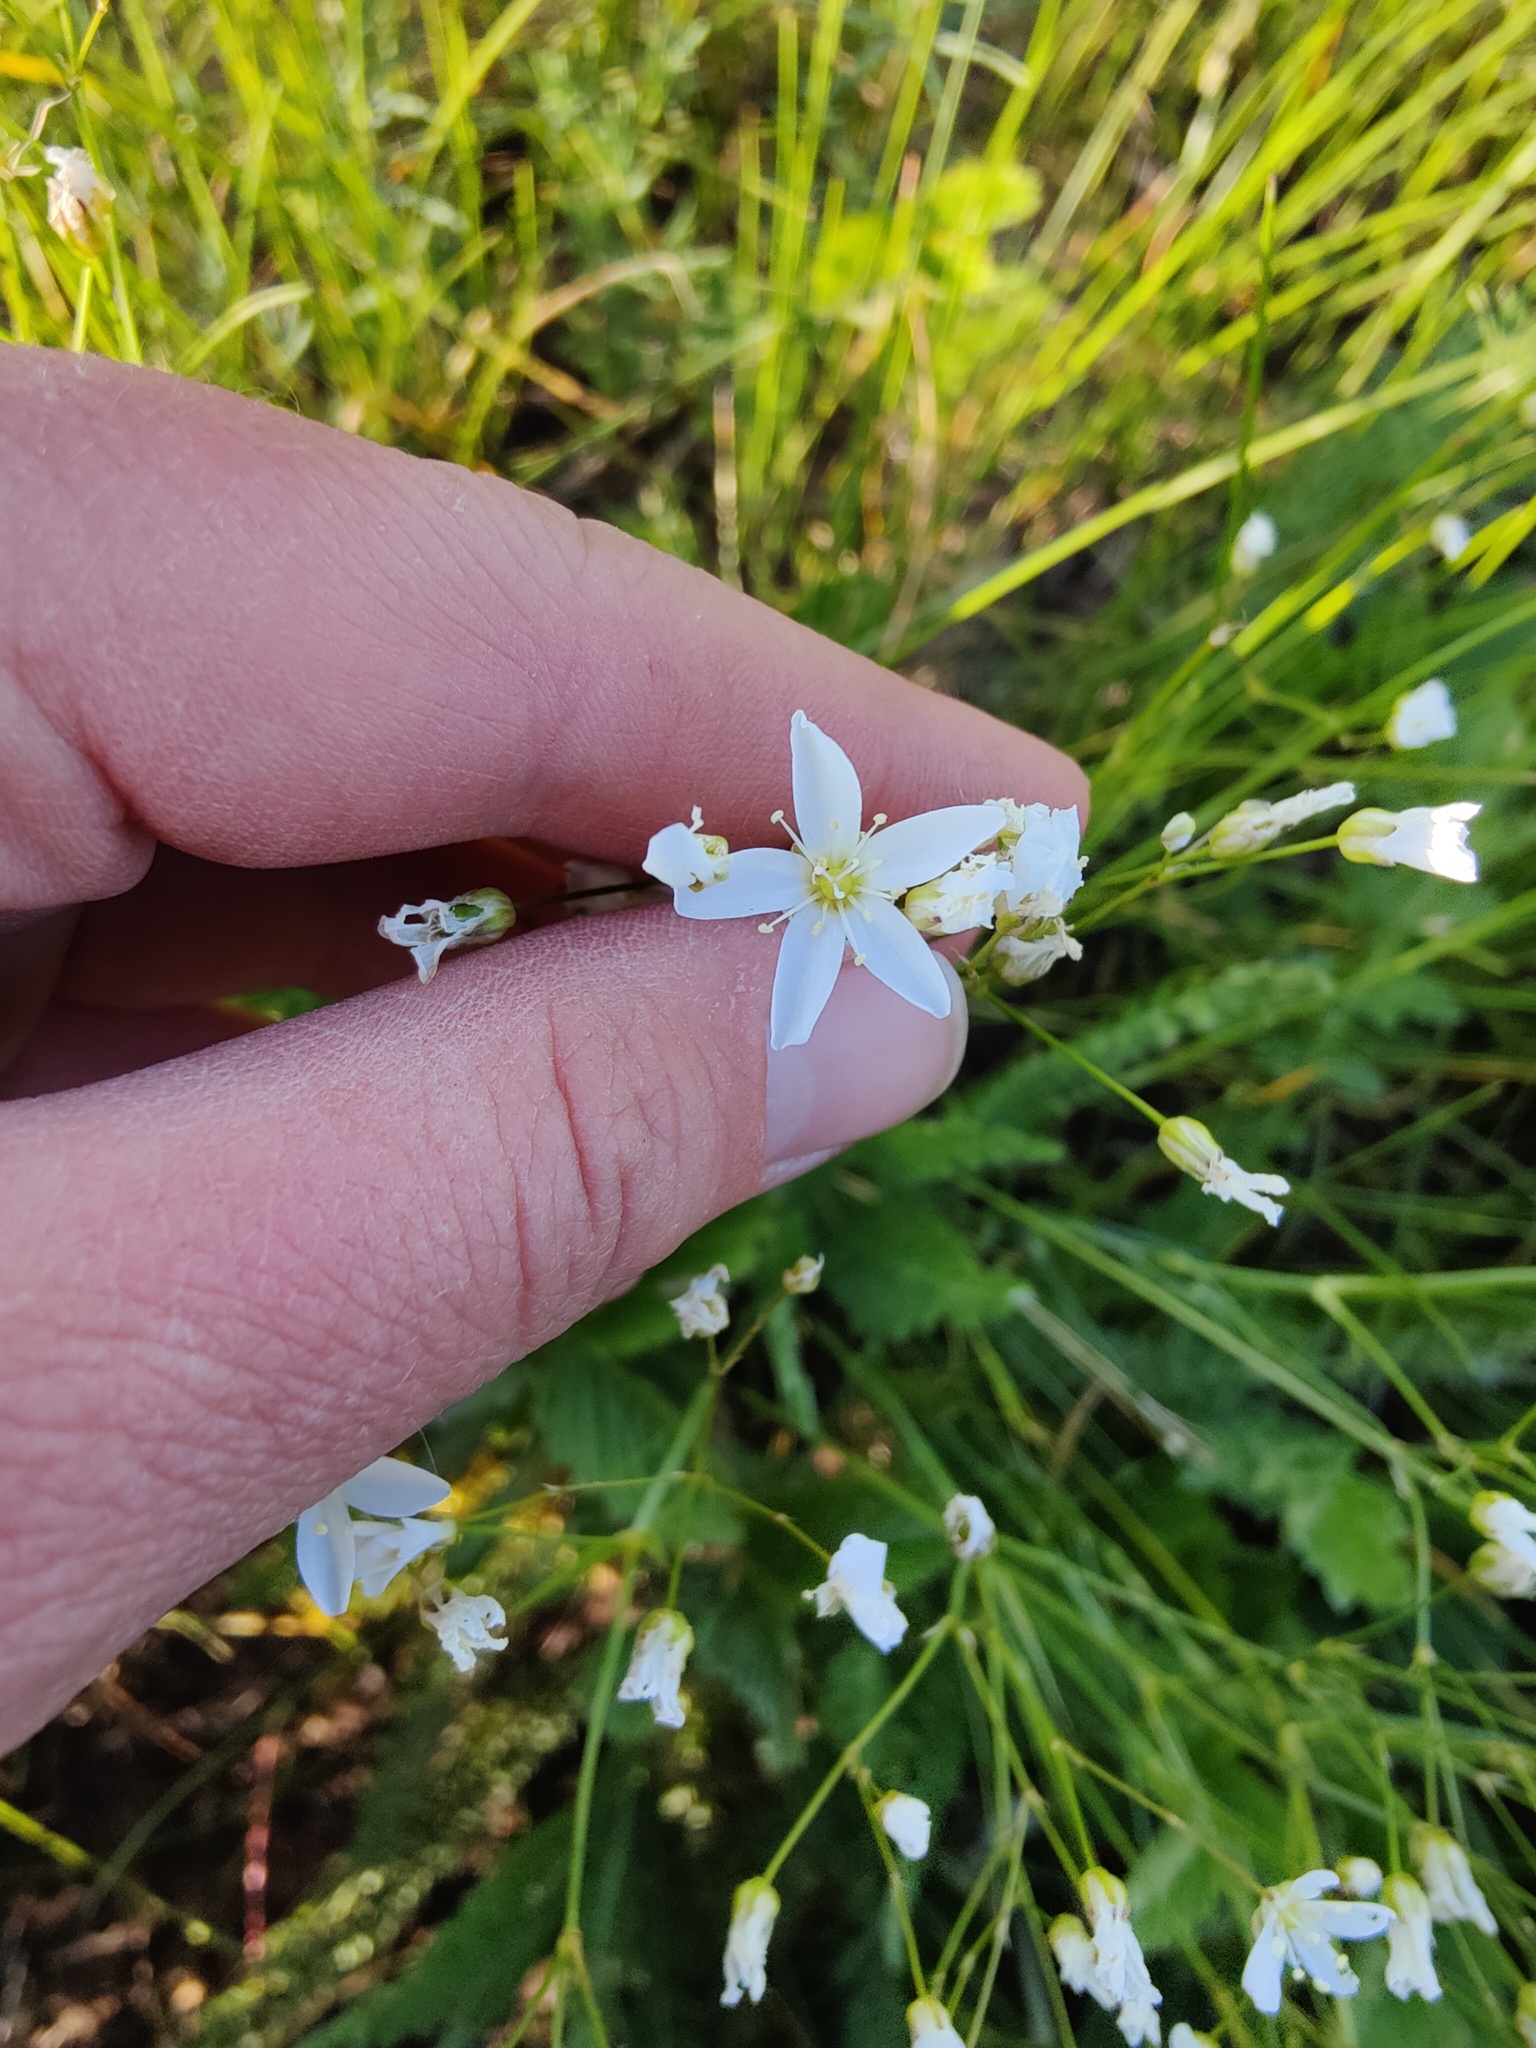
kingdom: Plantae
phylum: Tracheophyta
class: Magnoliopsida
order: Caryophyllales
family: Caryophyllaceae
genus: Eremogone
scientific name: Eremogone saxatilis
